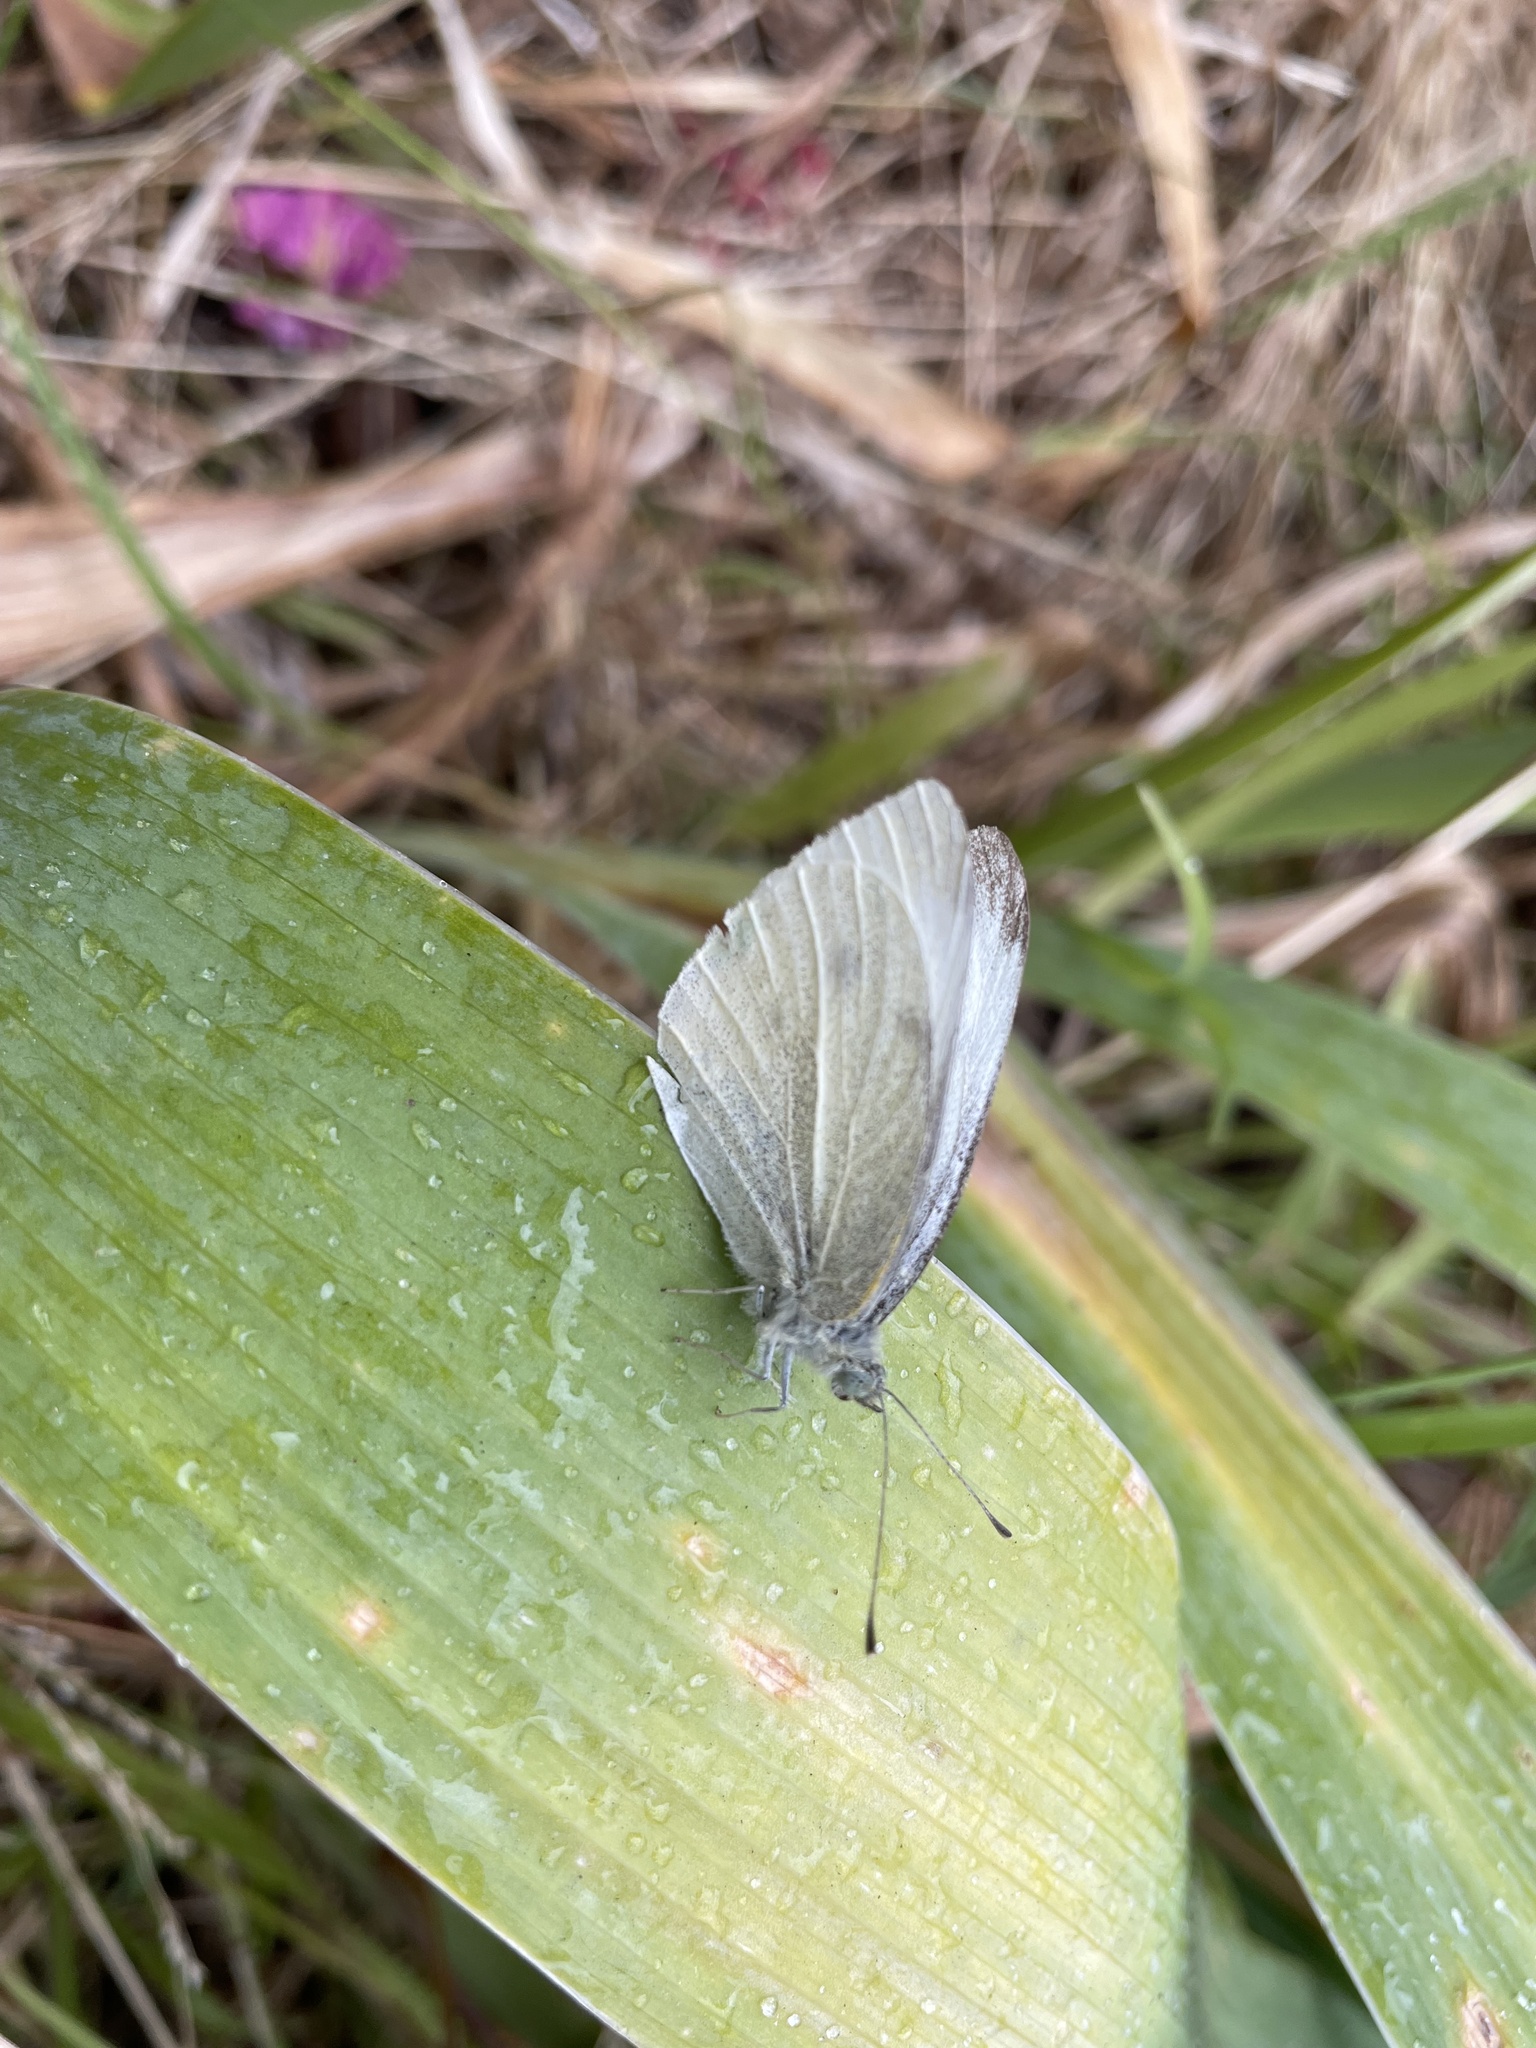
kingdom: Animalia
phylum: Arthropoda
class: Insecta
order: Lepidoptera
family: Pieridae
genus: Pieris
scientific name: Pieris rapae
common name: Small white
